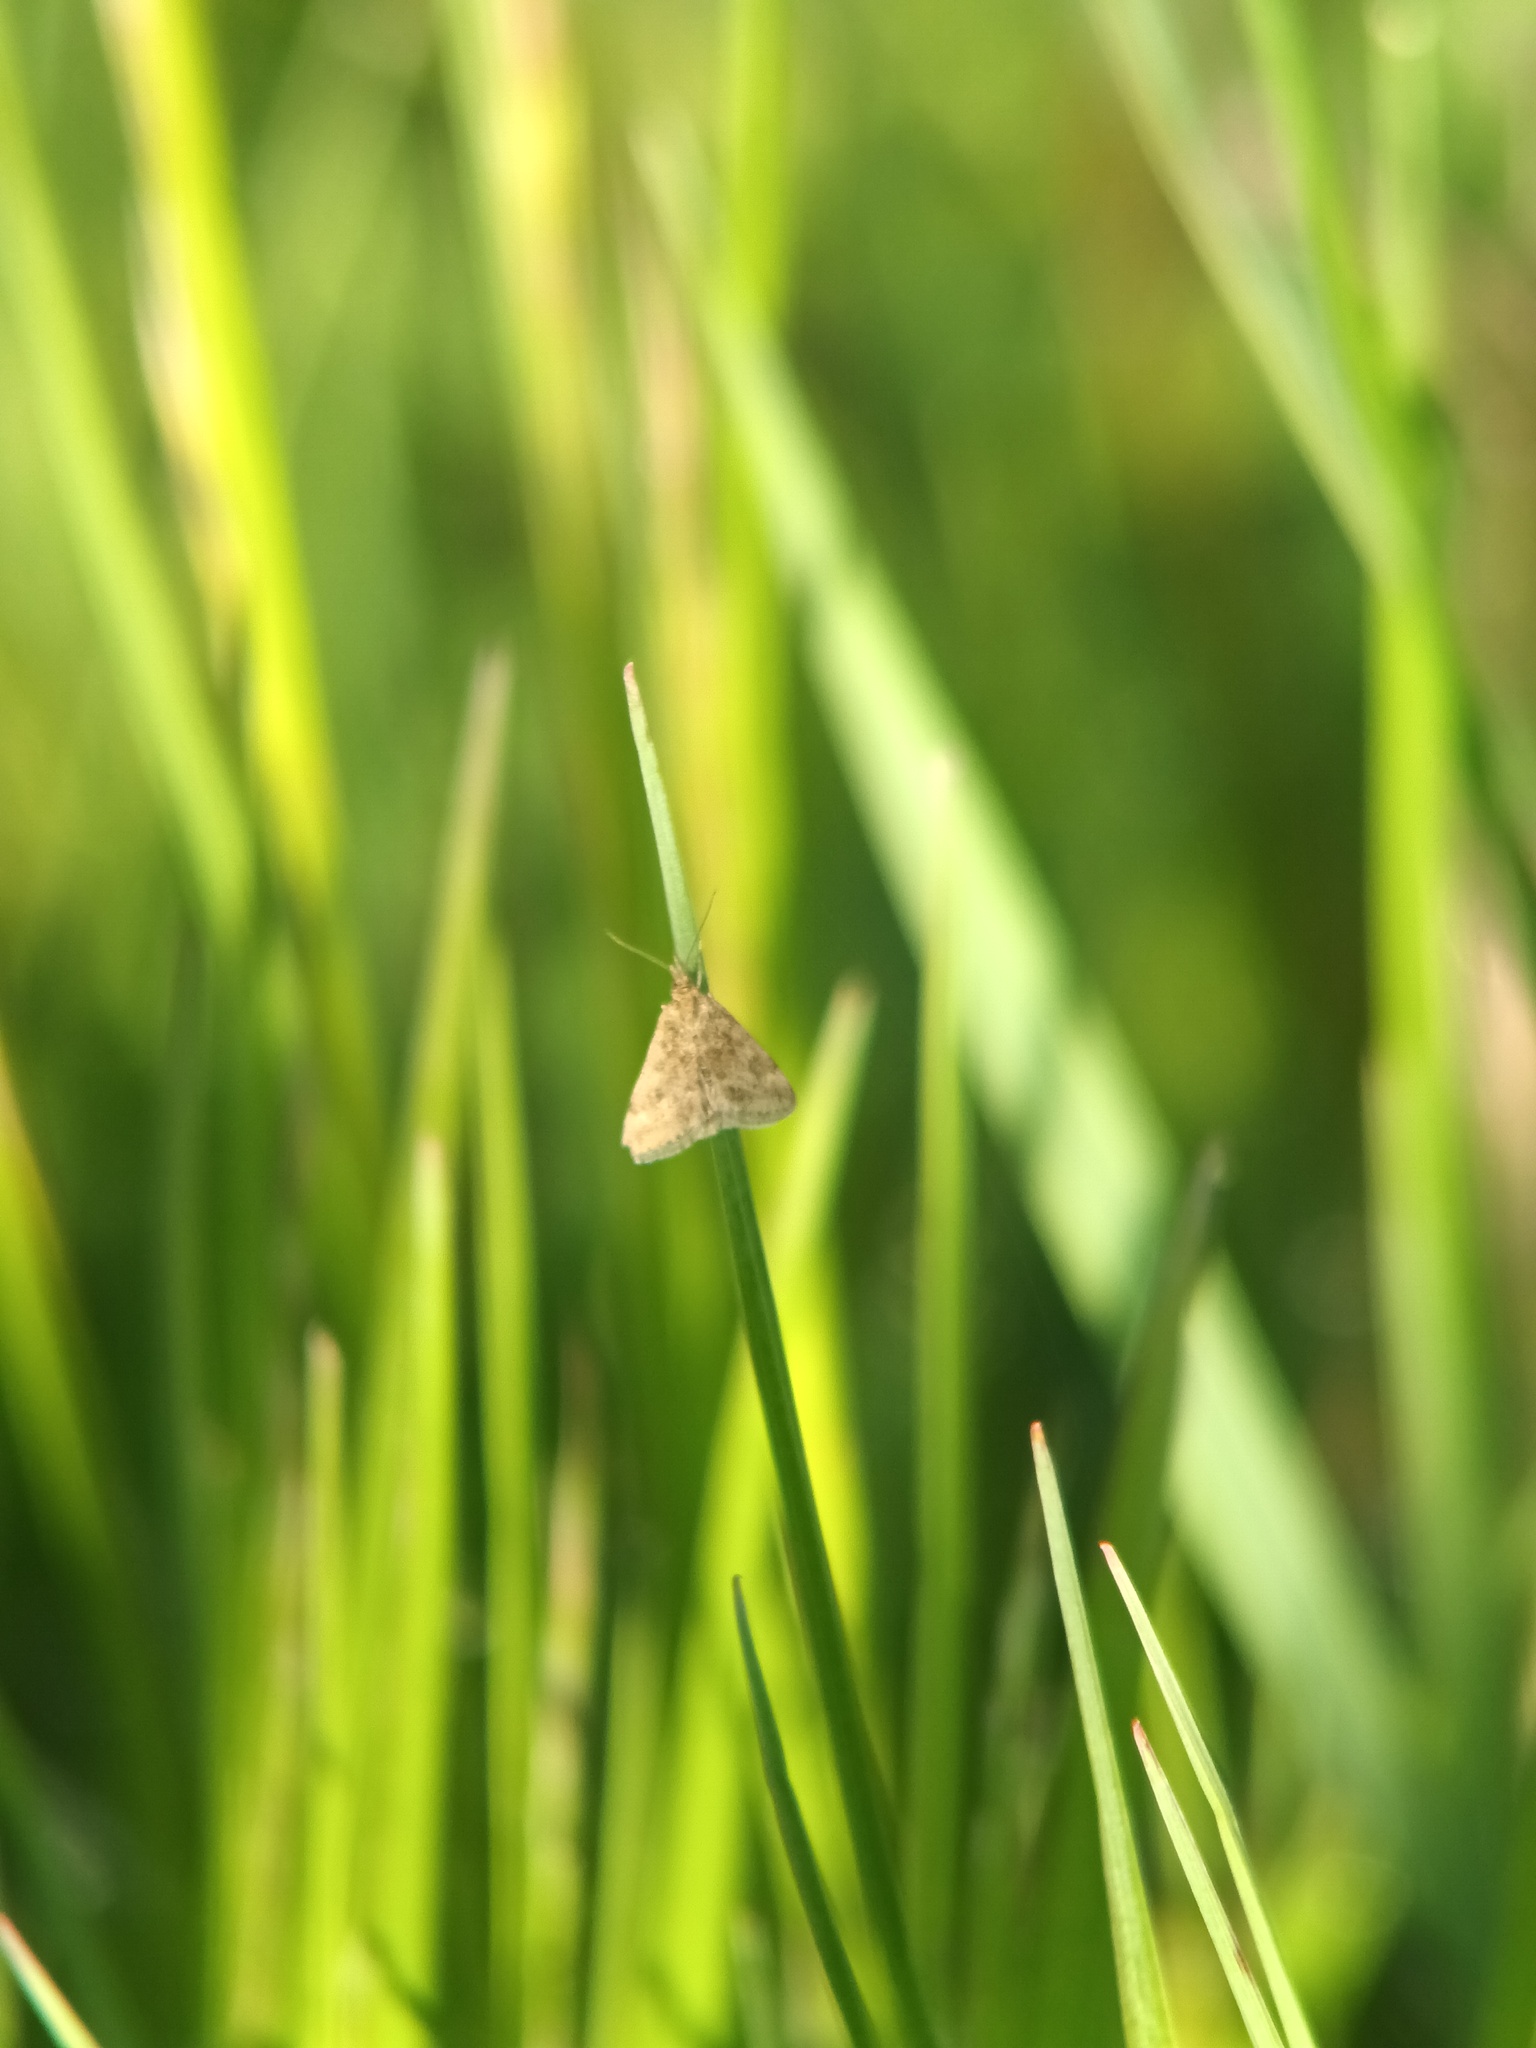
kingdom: Animalia
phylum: Arthropoda
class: Insecta
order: Lepidoptera
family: Crambidae
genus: Pyrausta
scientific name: Pyrausta despicata
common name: Straw-barred pearl
